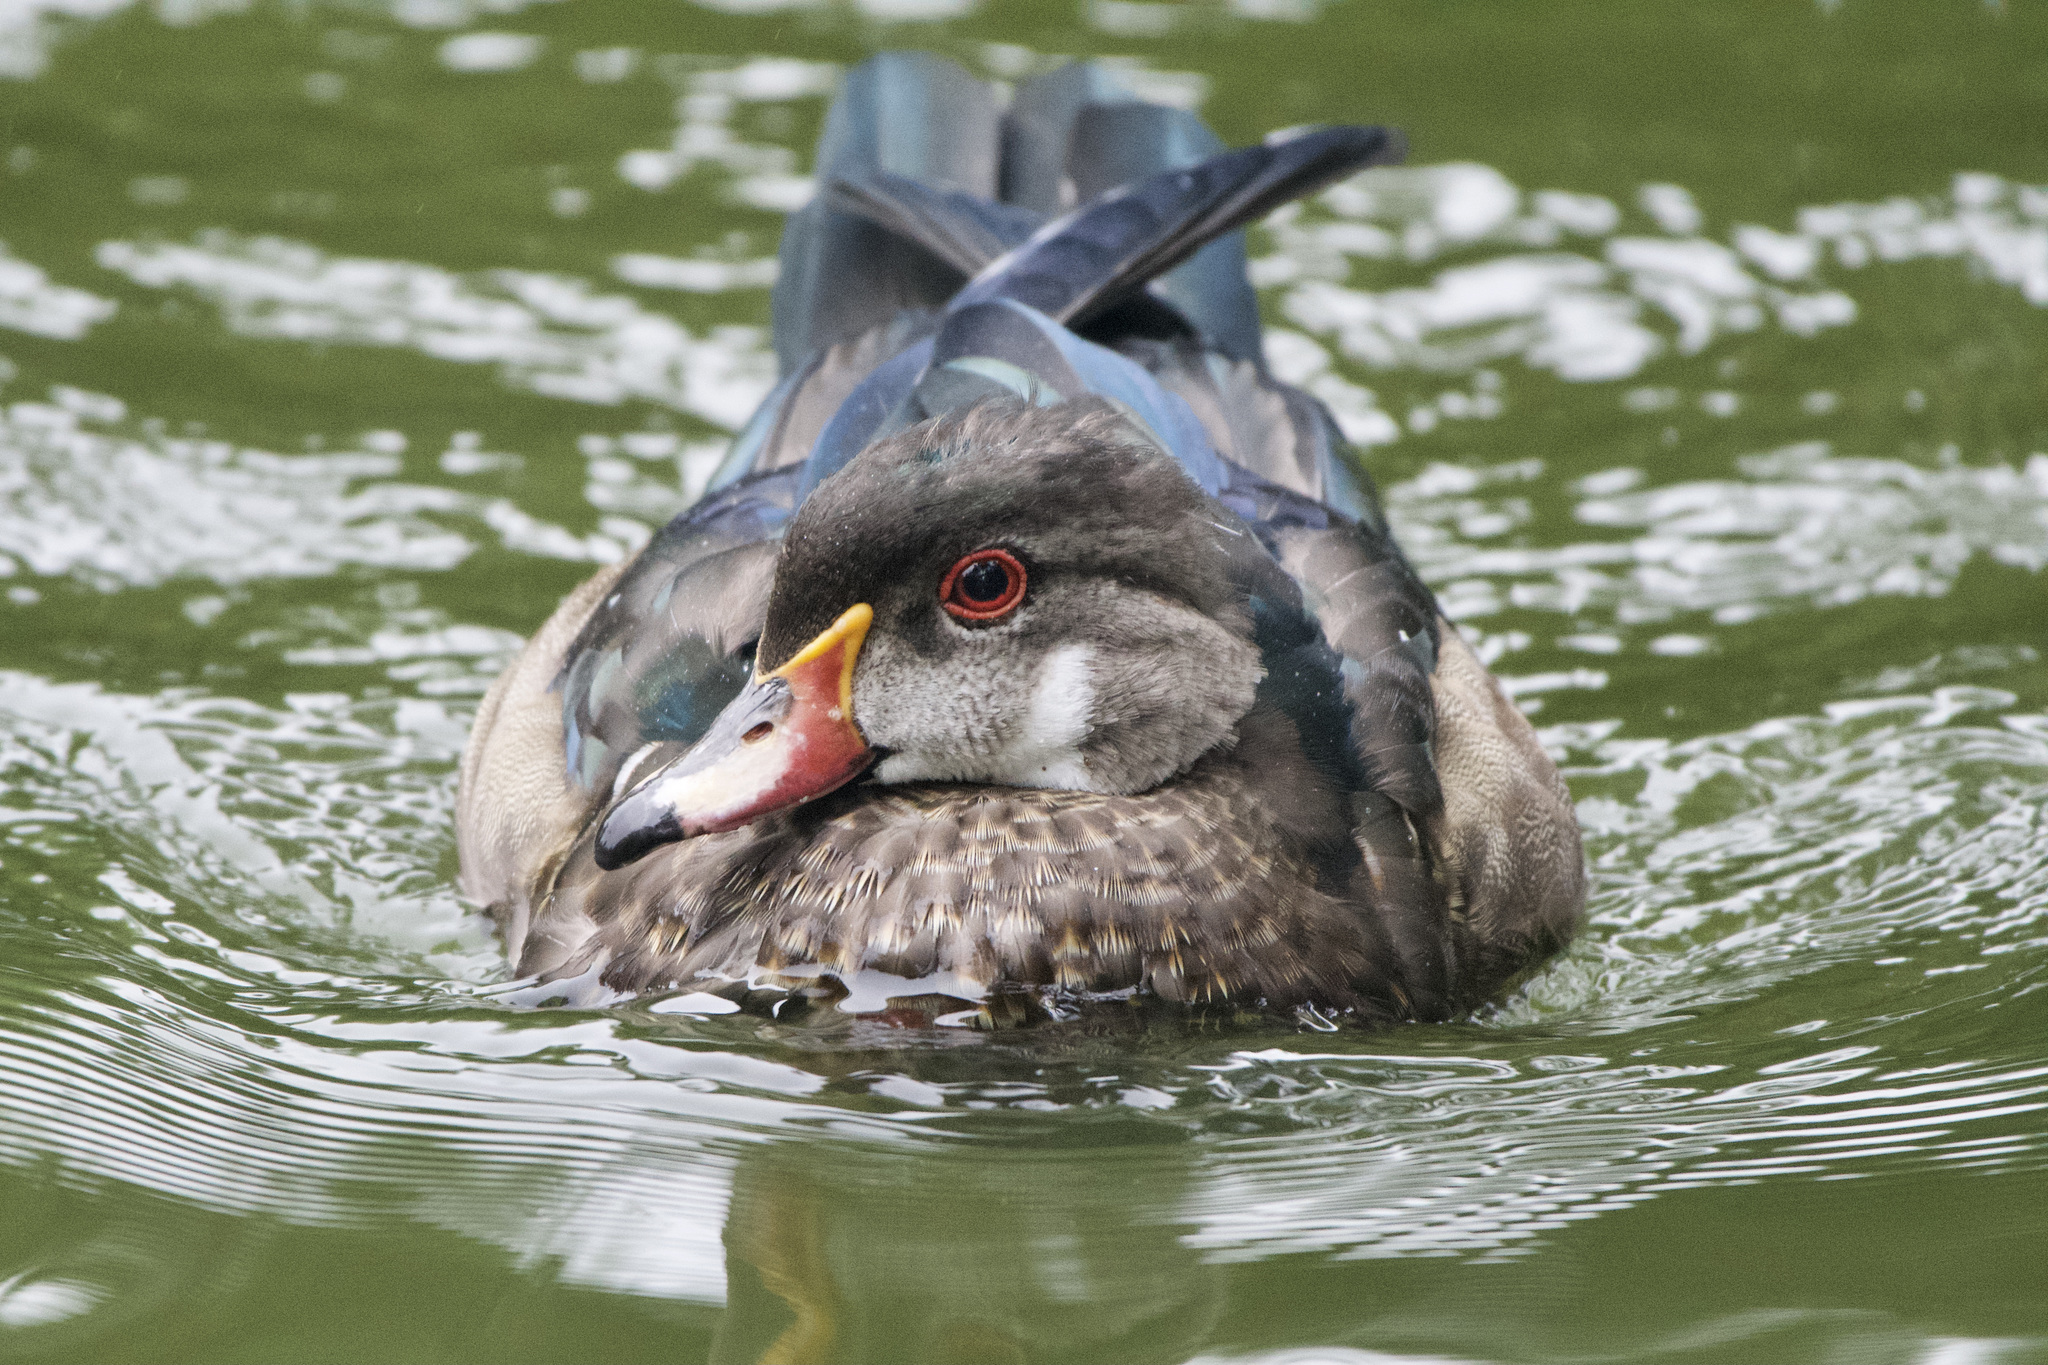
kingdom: Animalia
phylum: Chordata
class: Aves
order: Anseriformes
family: Anatidae
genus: Aix
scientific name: Aix sponsa
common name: Wood duck
